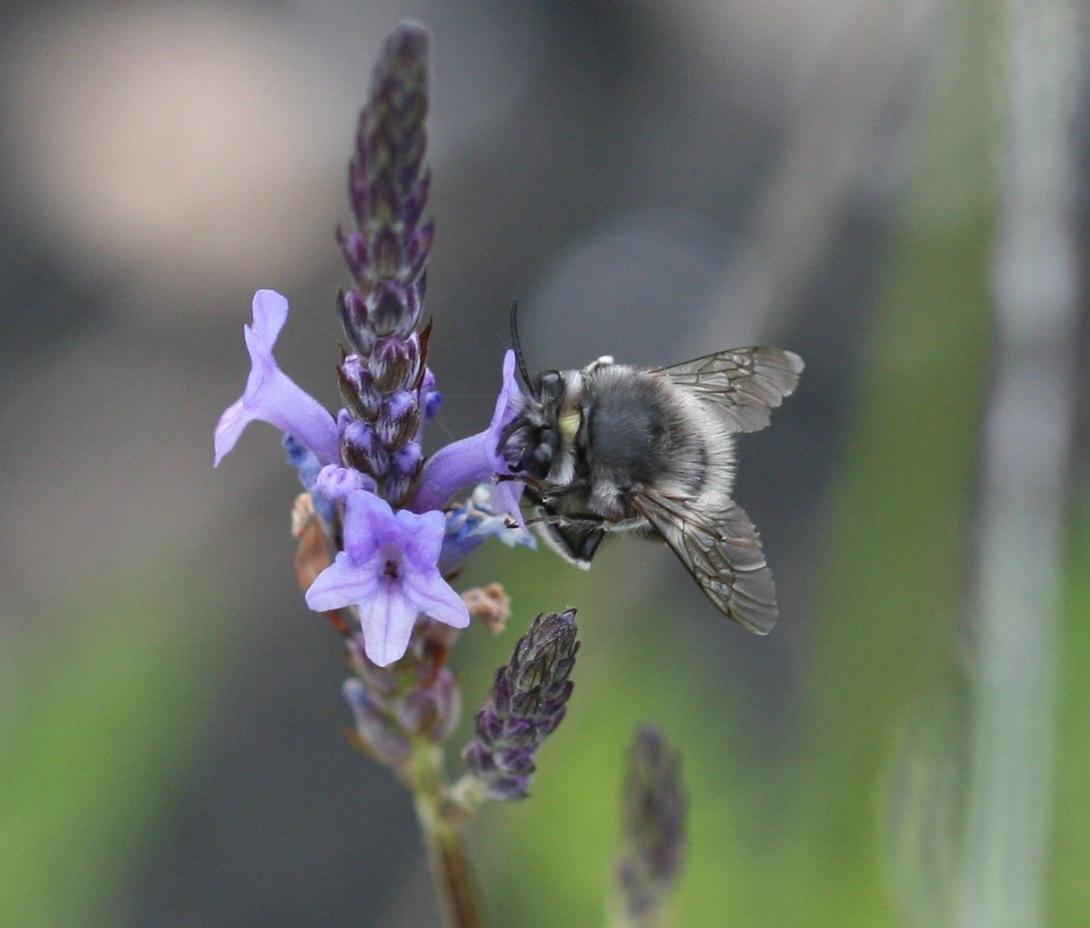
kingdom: Animalia
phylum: Arthropoda
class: Insecta
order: Hymenoptera
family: Apidae
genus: Anthophora
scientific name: Anthophora alluaudi
